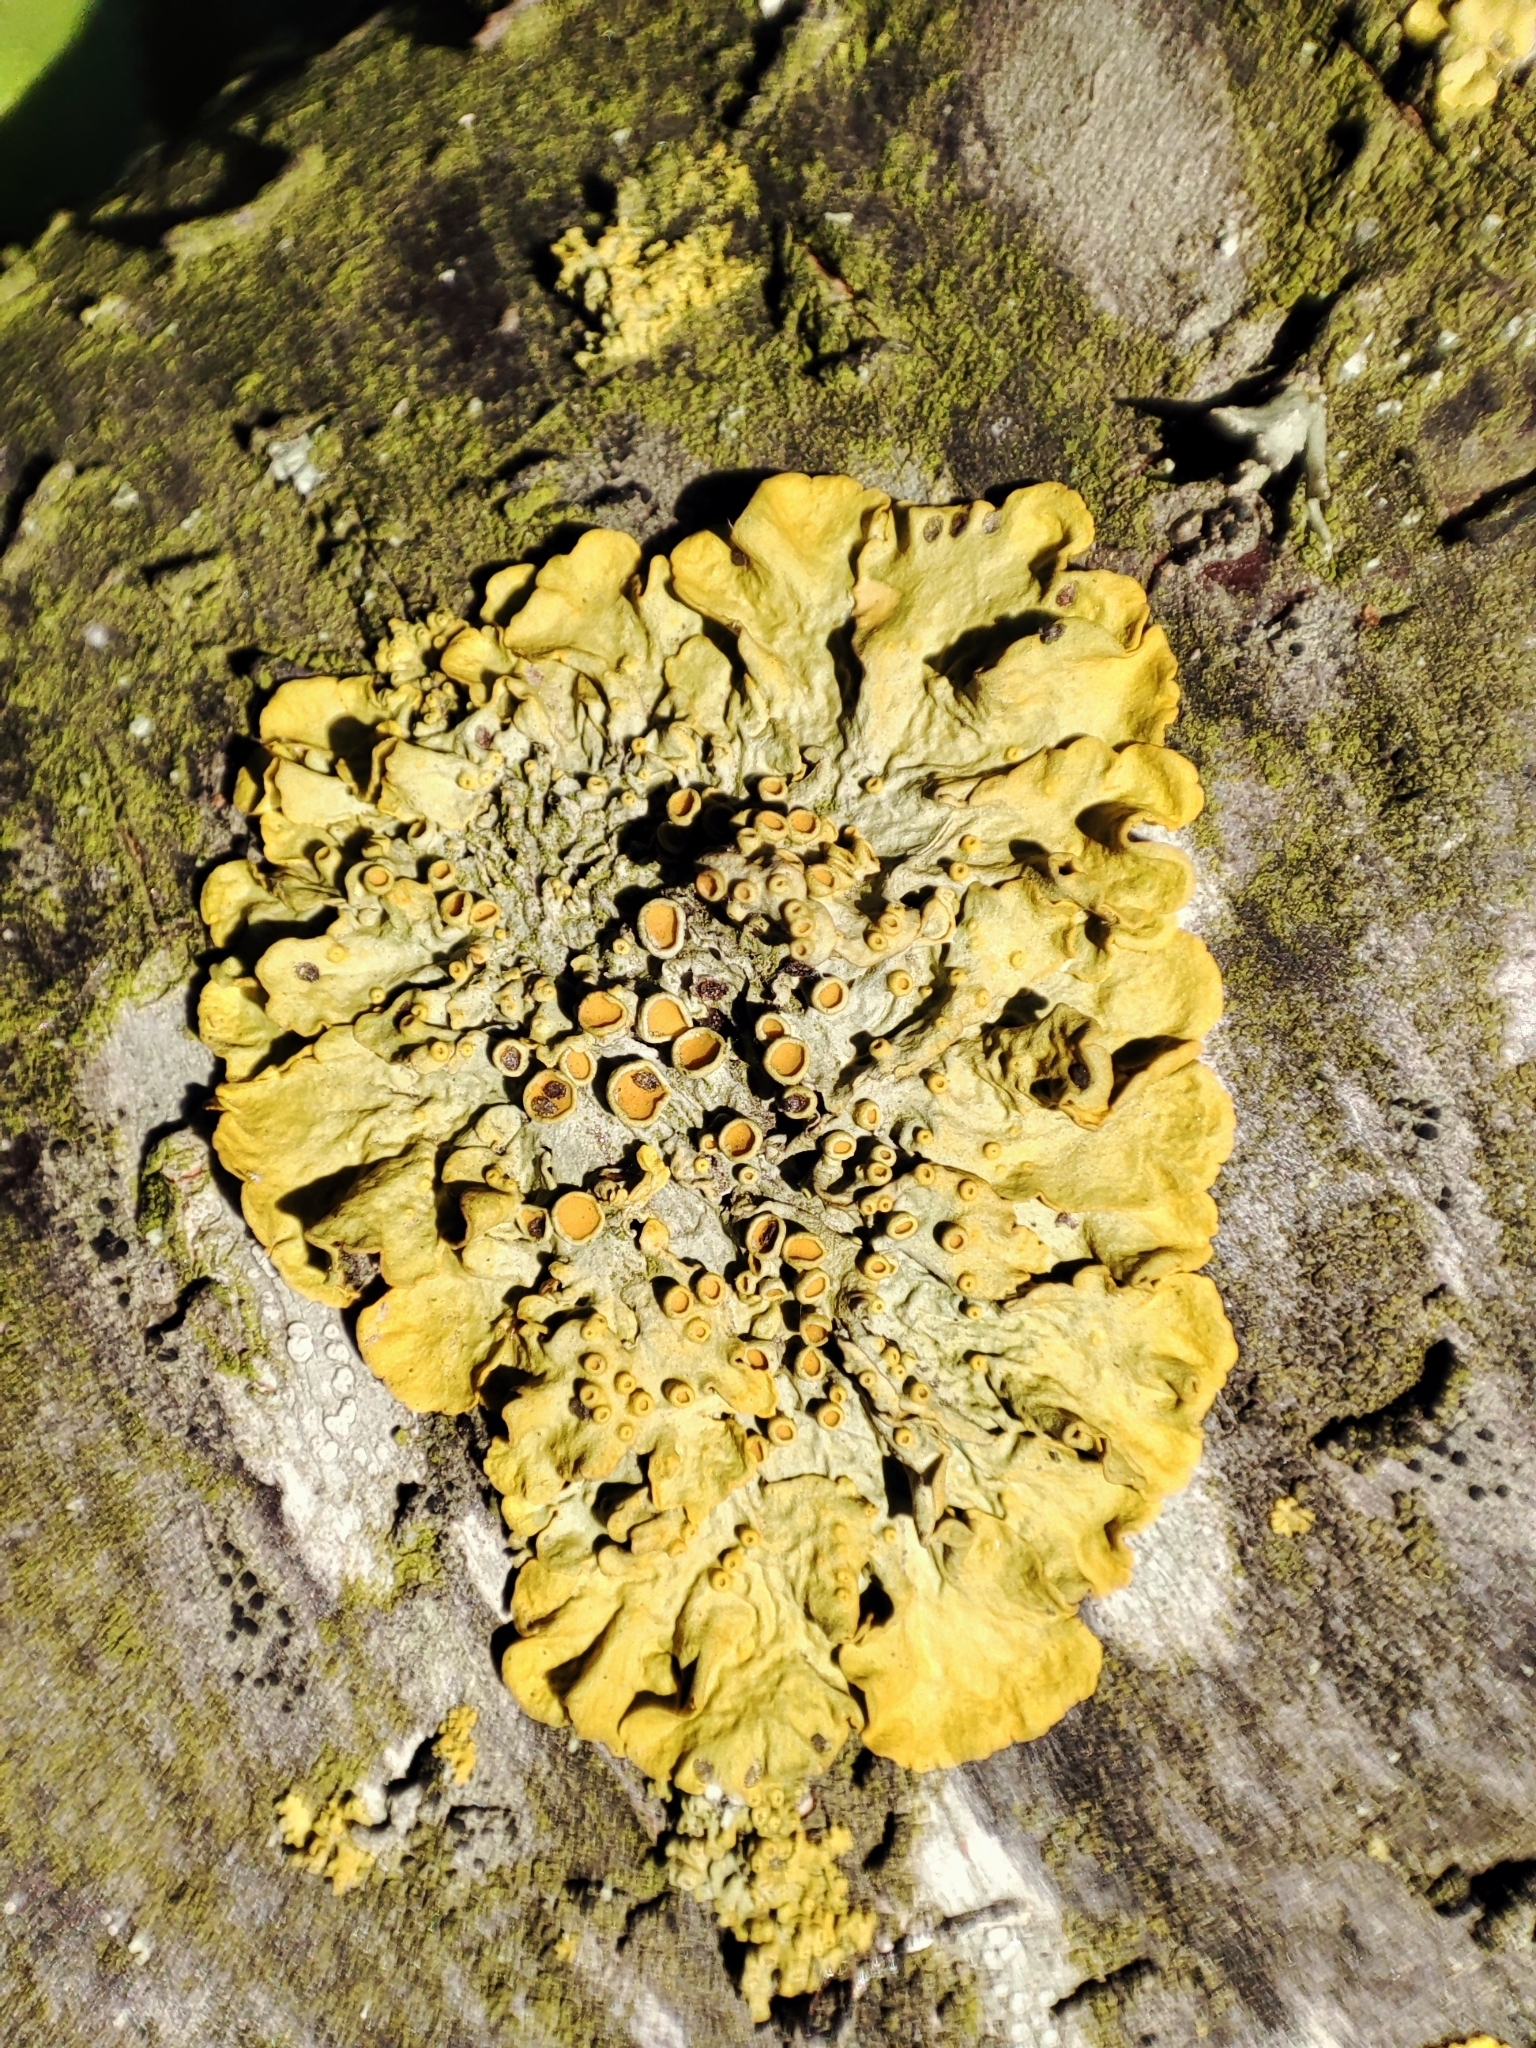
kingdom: Fungi
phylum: Ascomycota
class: Lecanoromycetes
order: Teloschistales
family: Teloschistaceae
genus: Xanthoria
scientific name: Xanthoria parietina
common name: Common orange lichen
